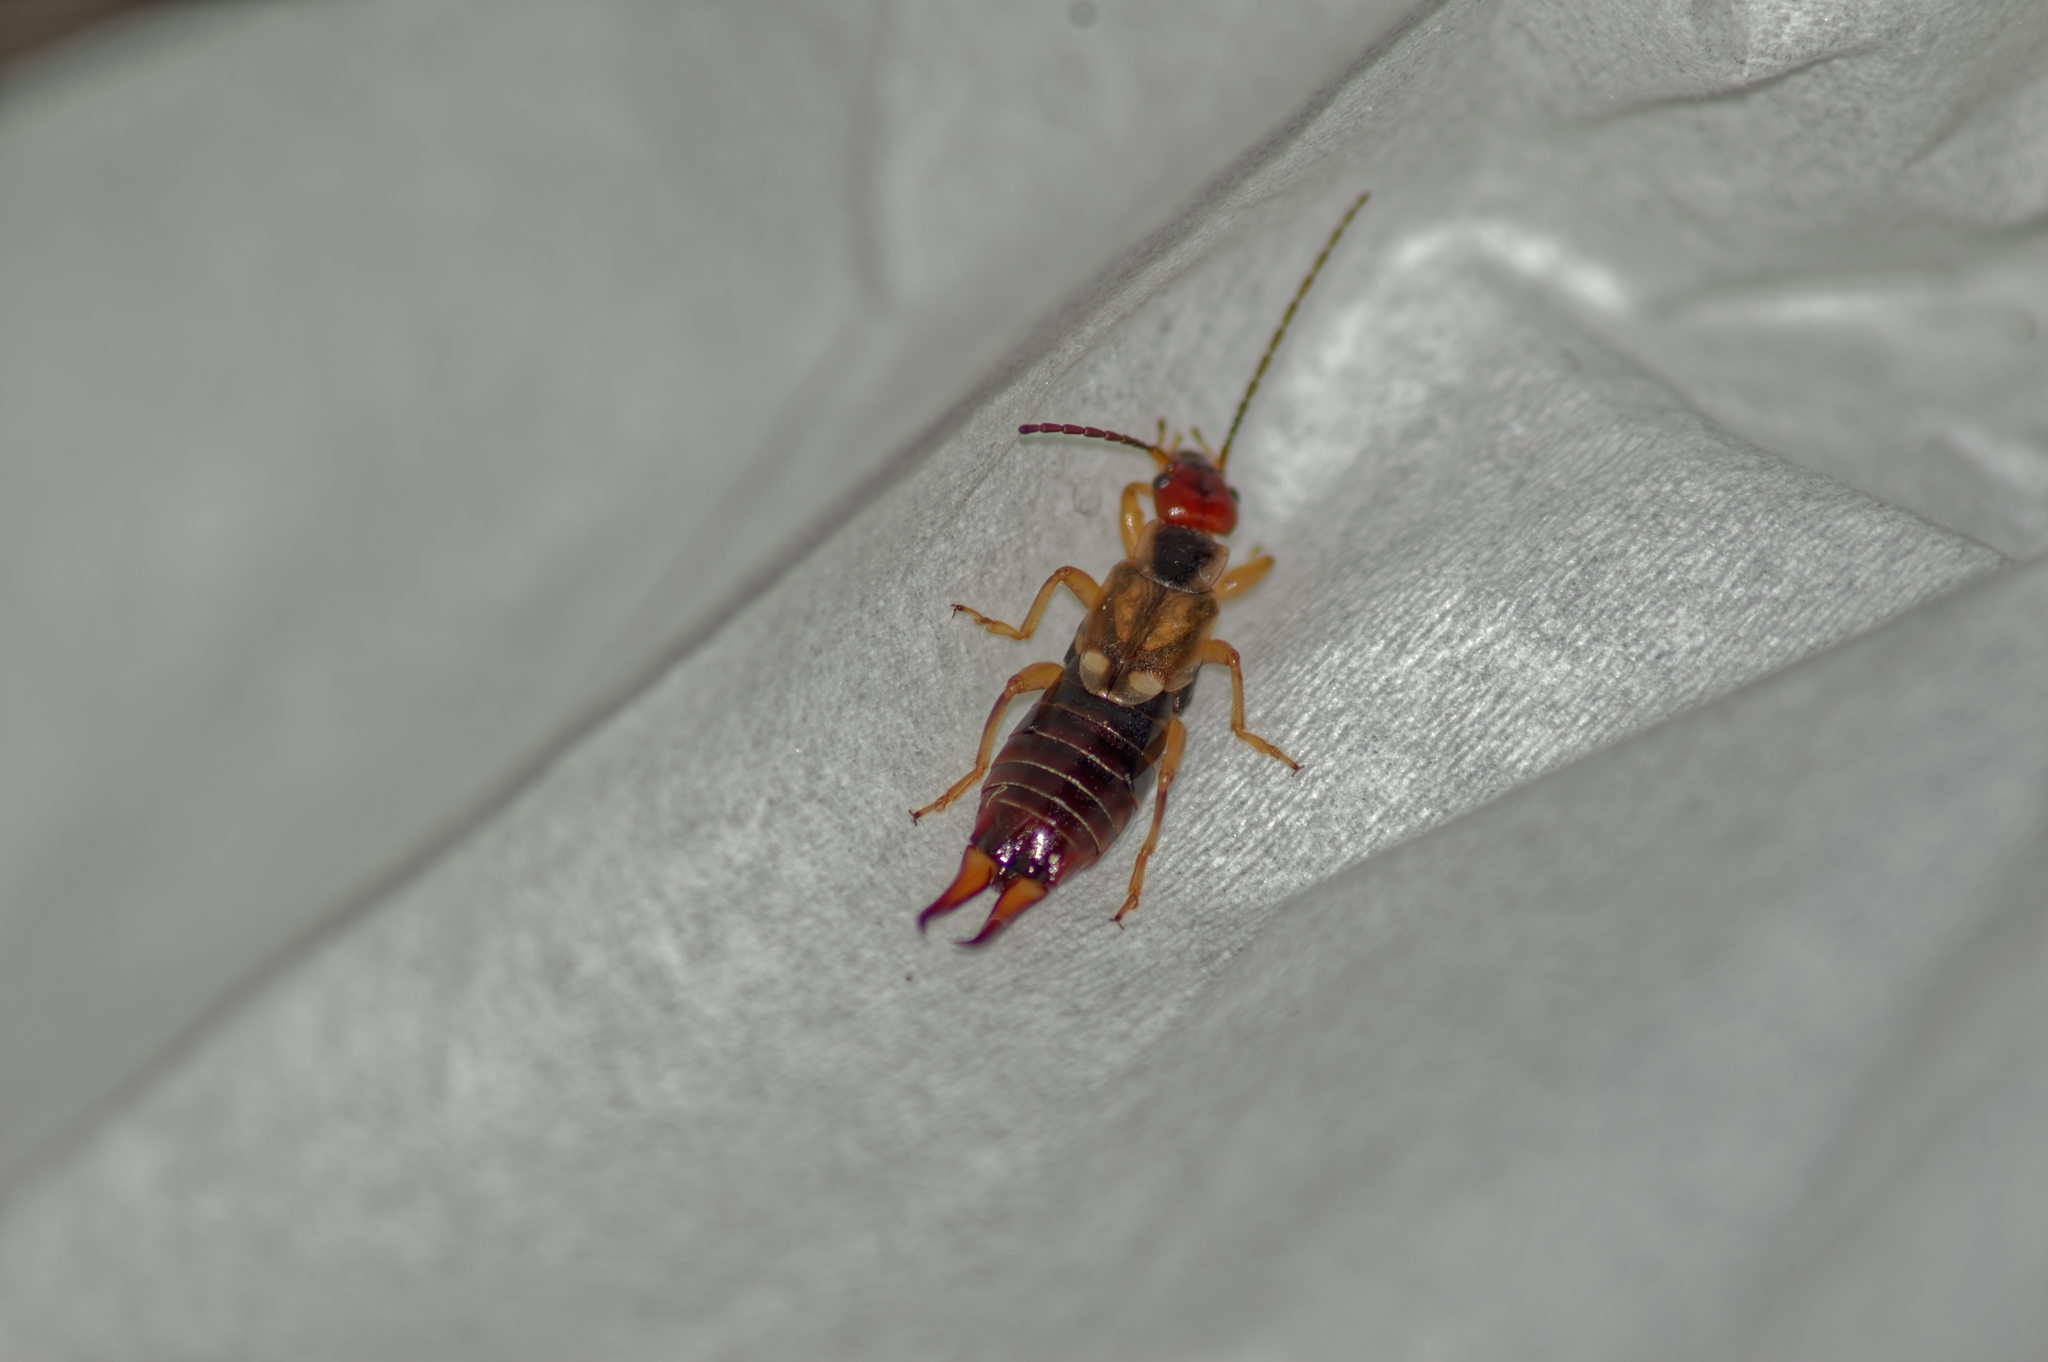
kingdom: Animalia
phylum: Arthropoda
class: Insecta
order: Dermaptera
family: Forficulidae
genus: Forficula
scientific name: Forficula
